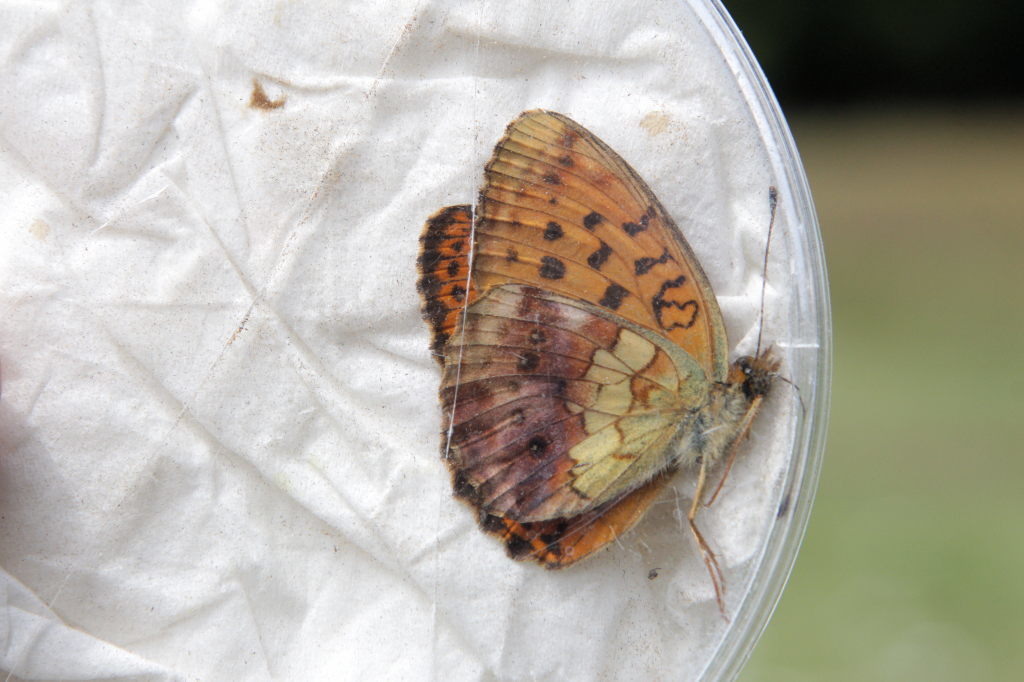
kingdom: Animalia
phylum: Arthropoda
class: Insecta
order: Lepidoptera
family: Nymphalidae
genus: Brenthis
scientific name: Brenthis daphne
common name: Marbled fritillary
